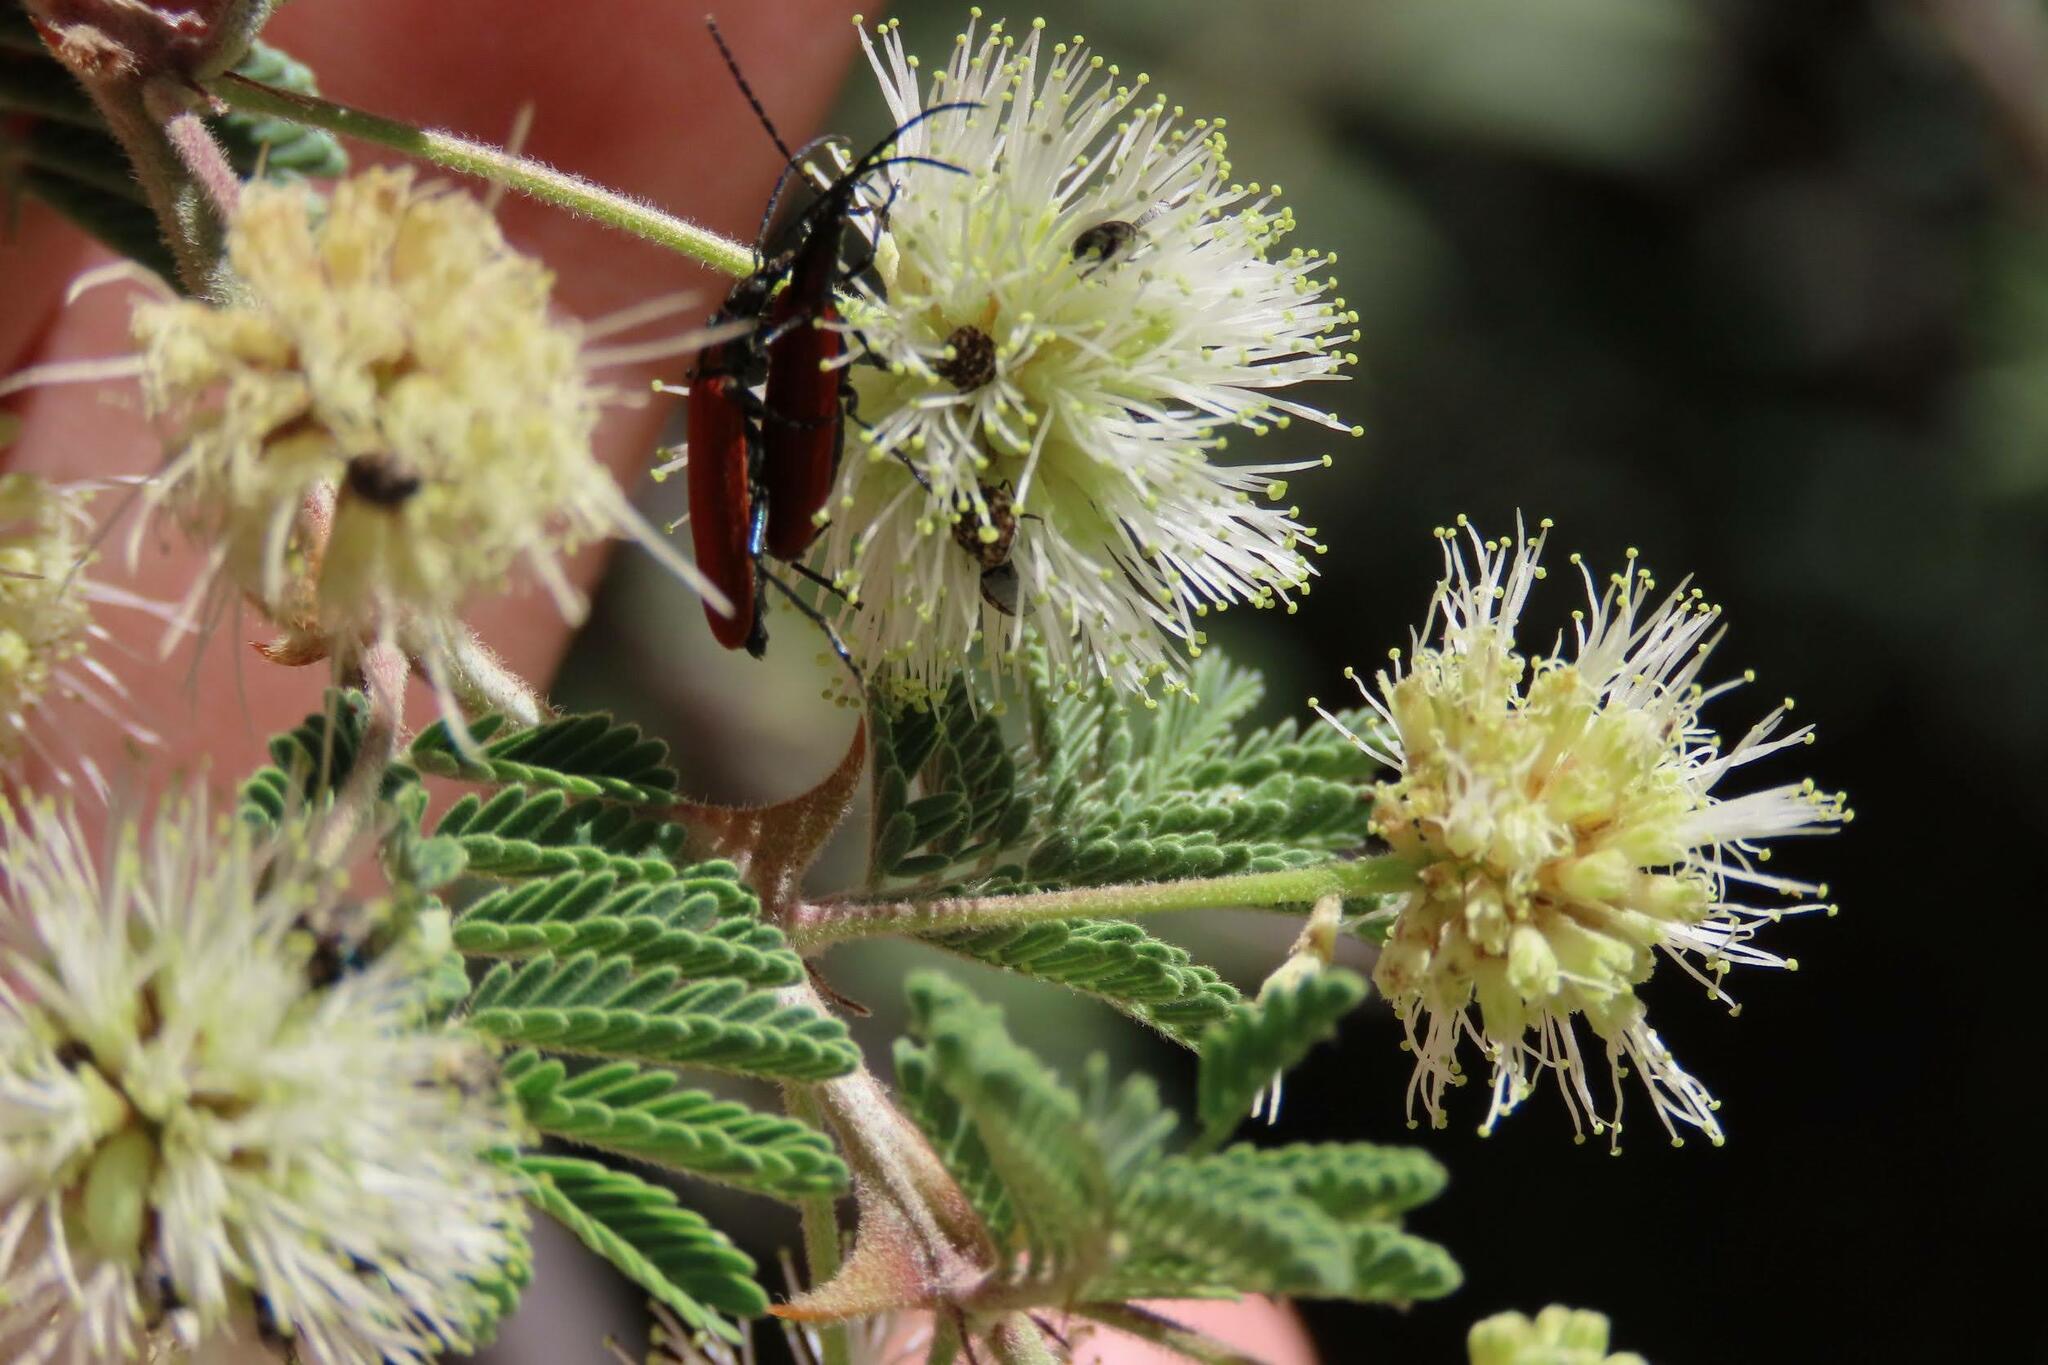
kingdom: Plantae
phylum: Tracheophyta
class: Magnoliopsida
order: Fabales
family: Fabaceae
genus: Mimosa
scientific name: Mimosa aculeaticarpa
